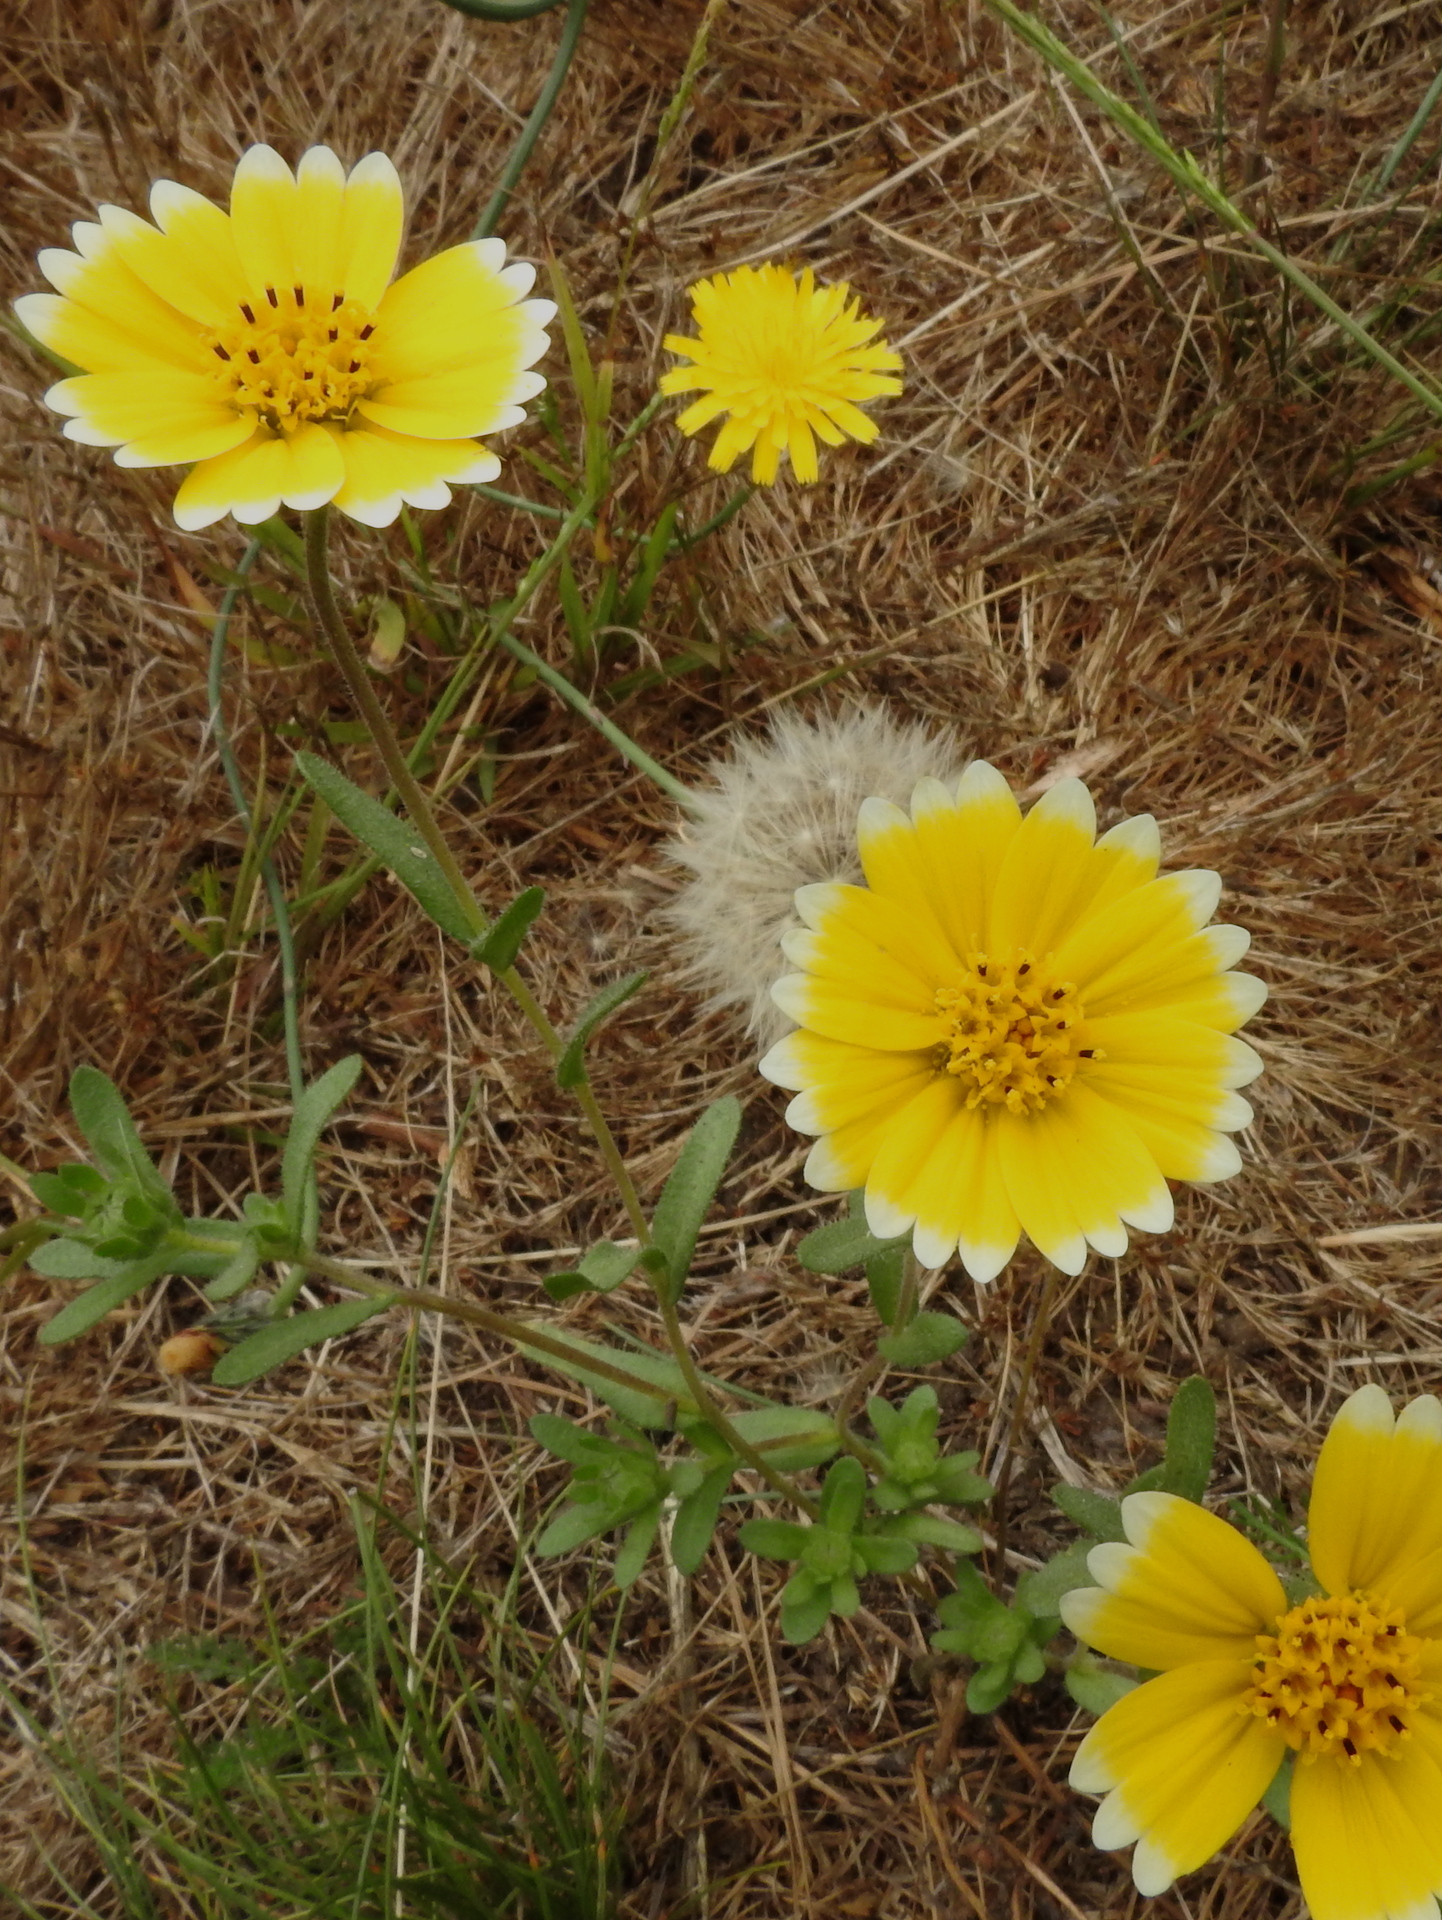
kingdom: Plantae
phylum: Tracheophyta
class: Magnoliopsida
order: Asterales
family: Asteraceae
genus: Layia
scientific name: Layia platyglossa
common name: Tidy-tips
